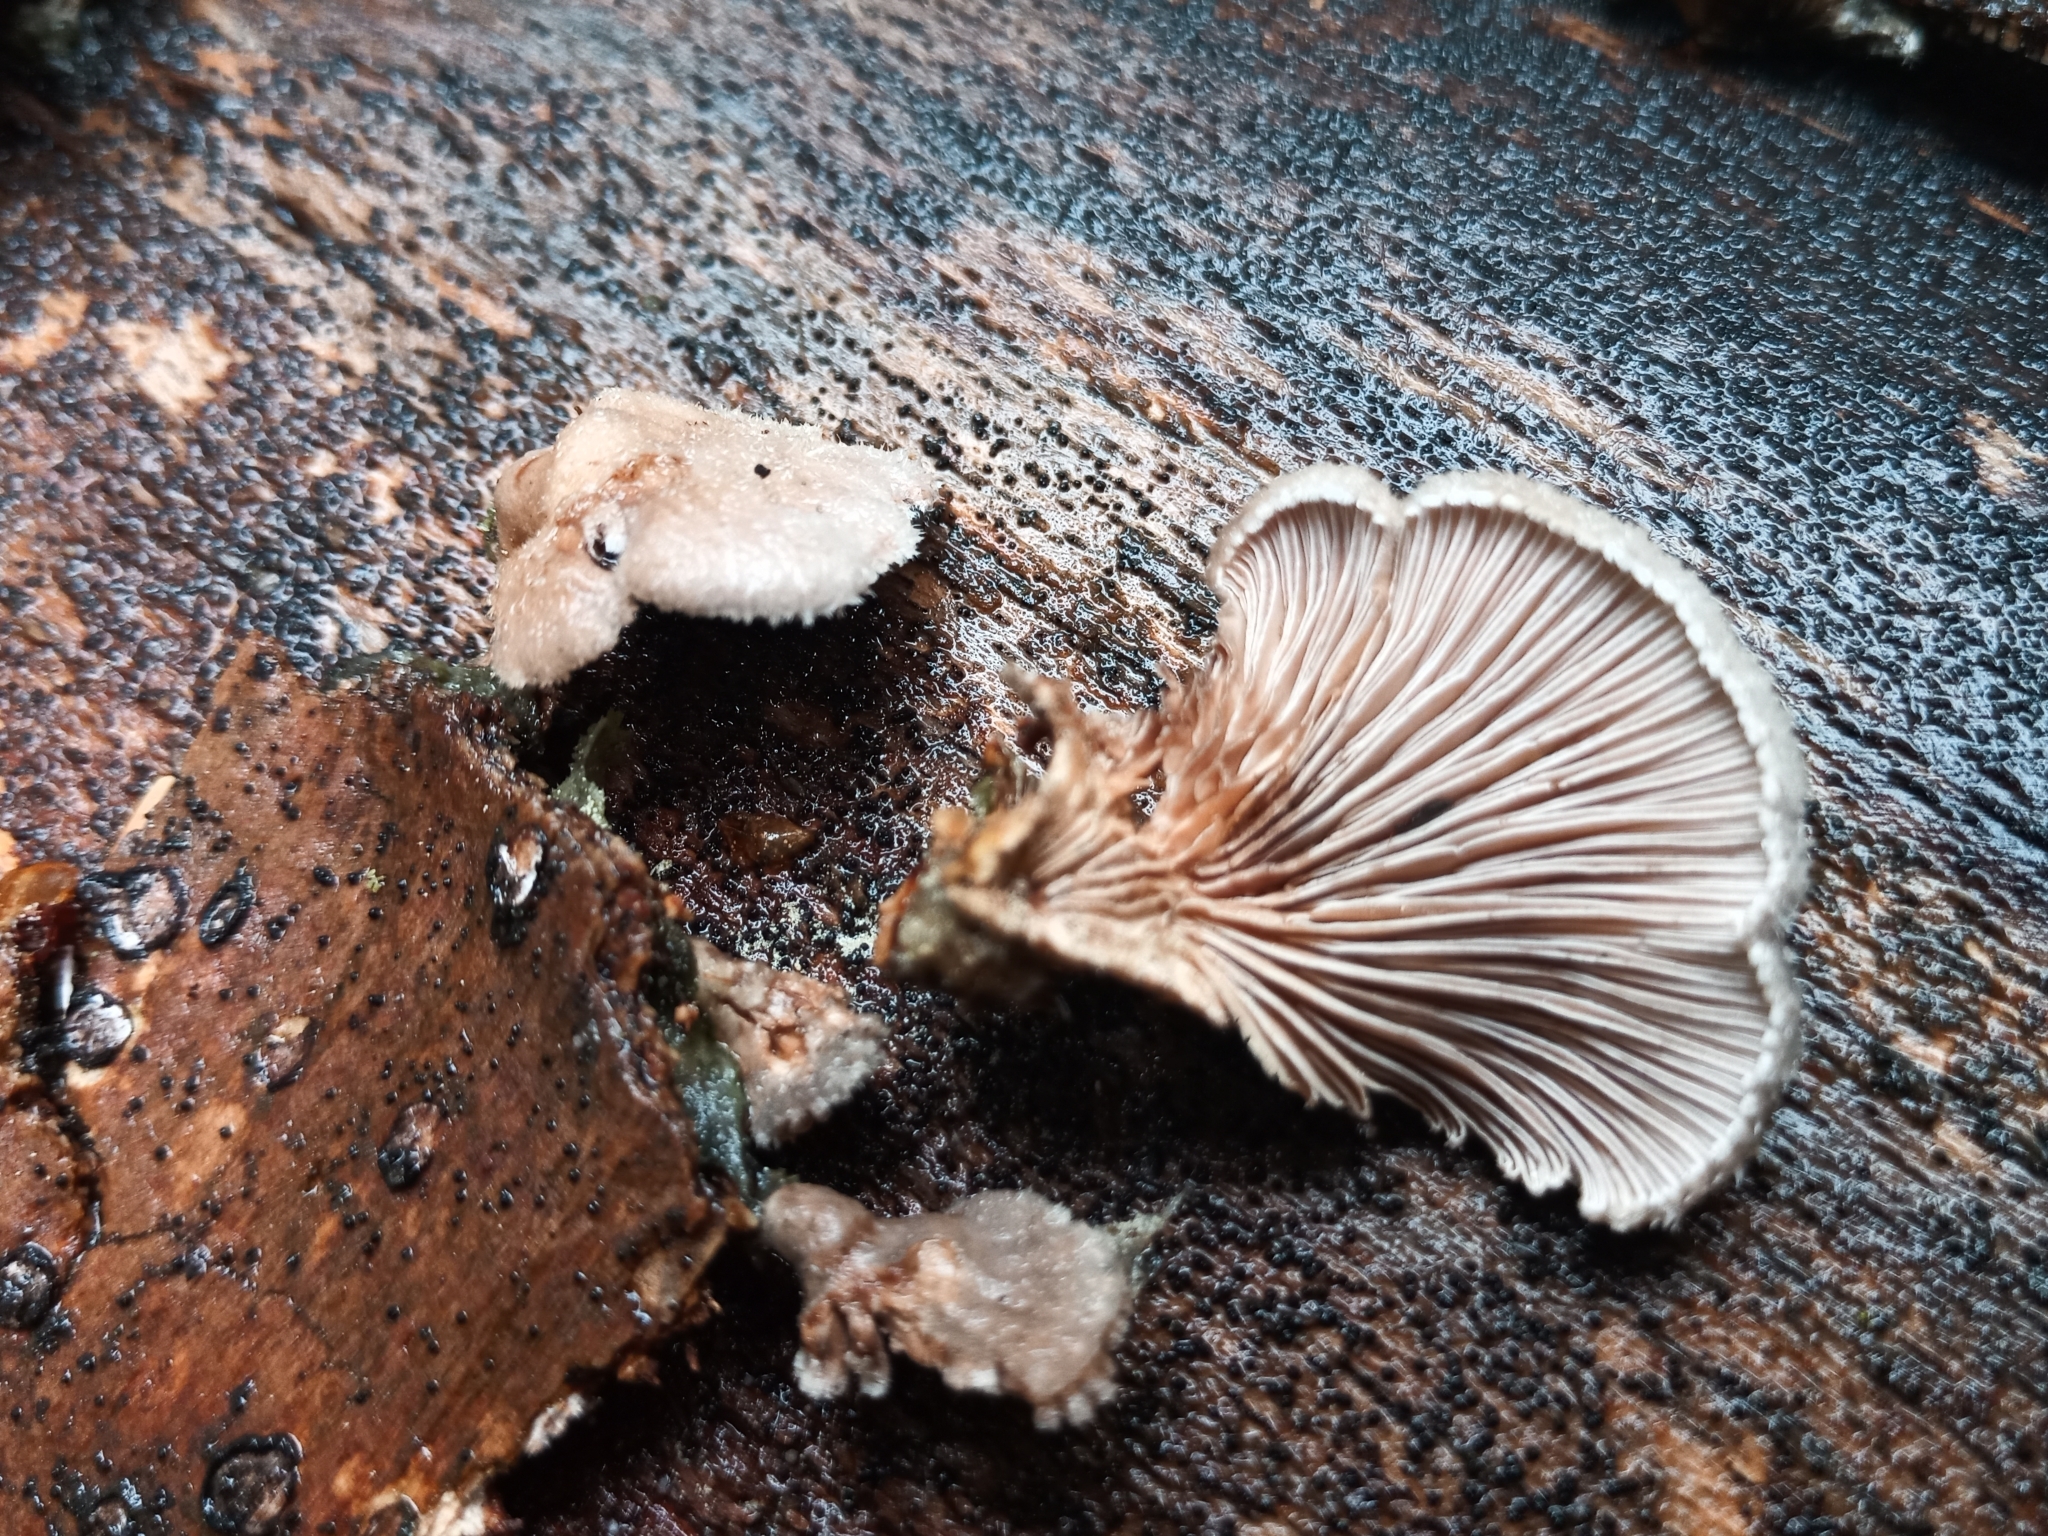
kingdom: Fungi
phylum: Basidiomycota
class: Agaricomycetes
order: Agaricales
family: Schizophyllaceae
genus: Schizophyllum
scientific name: Schizophyllum commune
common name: Common porecrust
